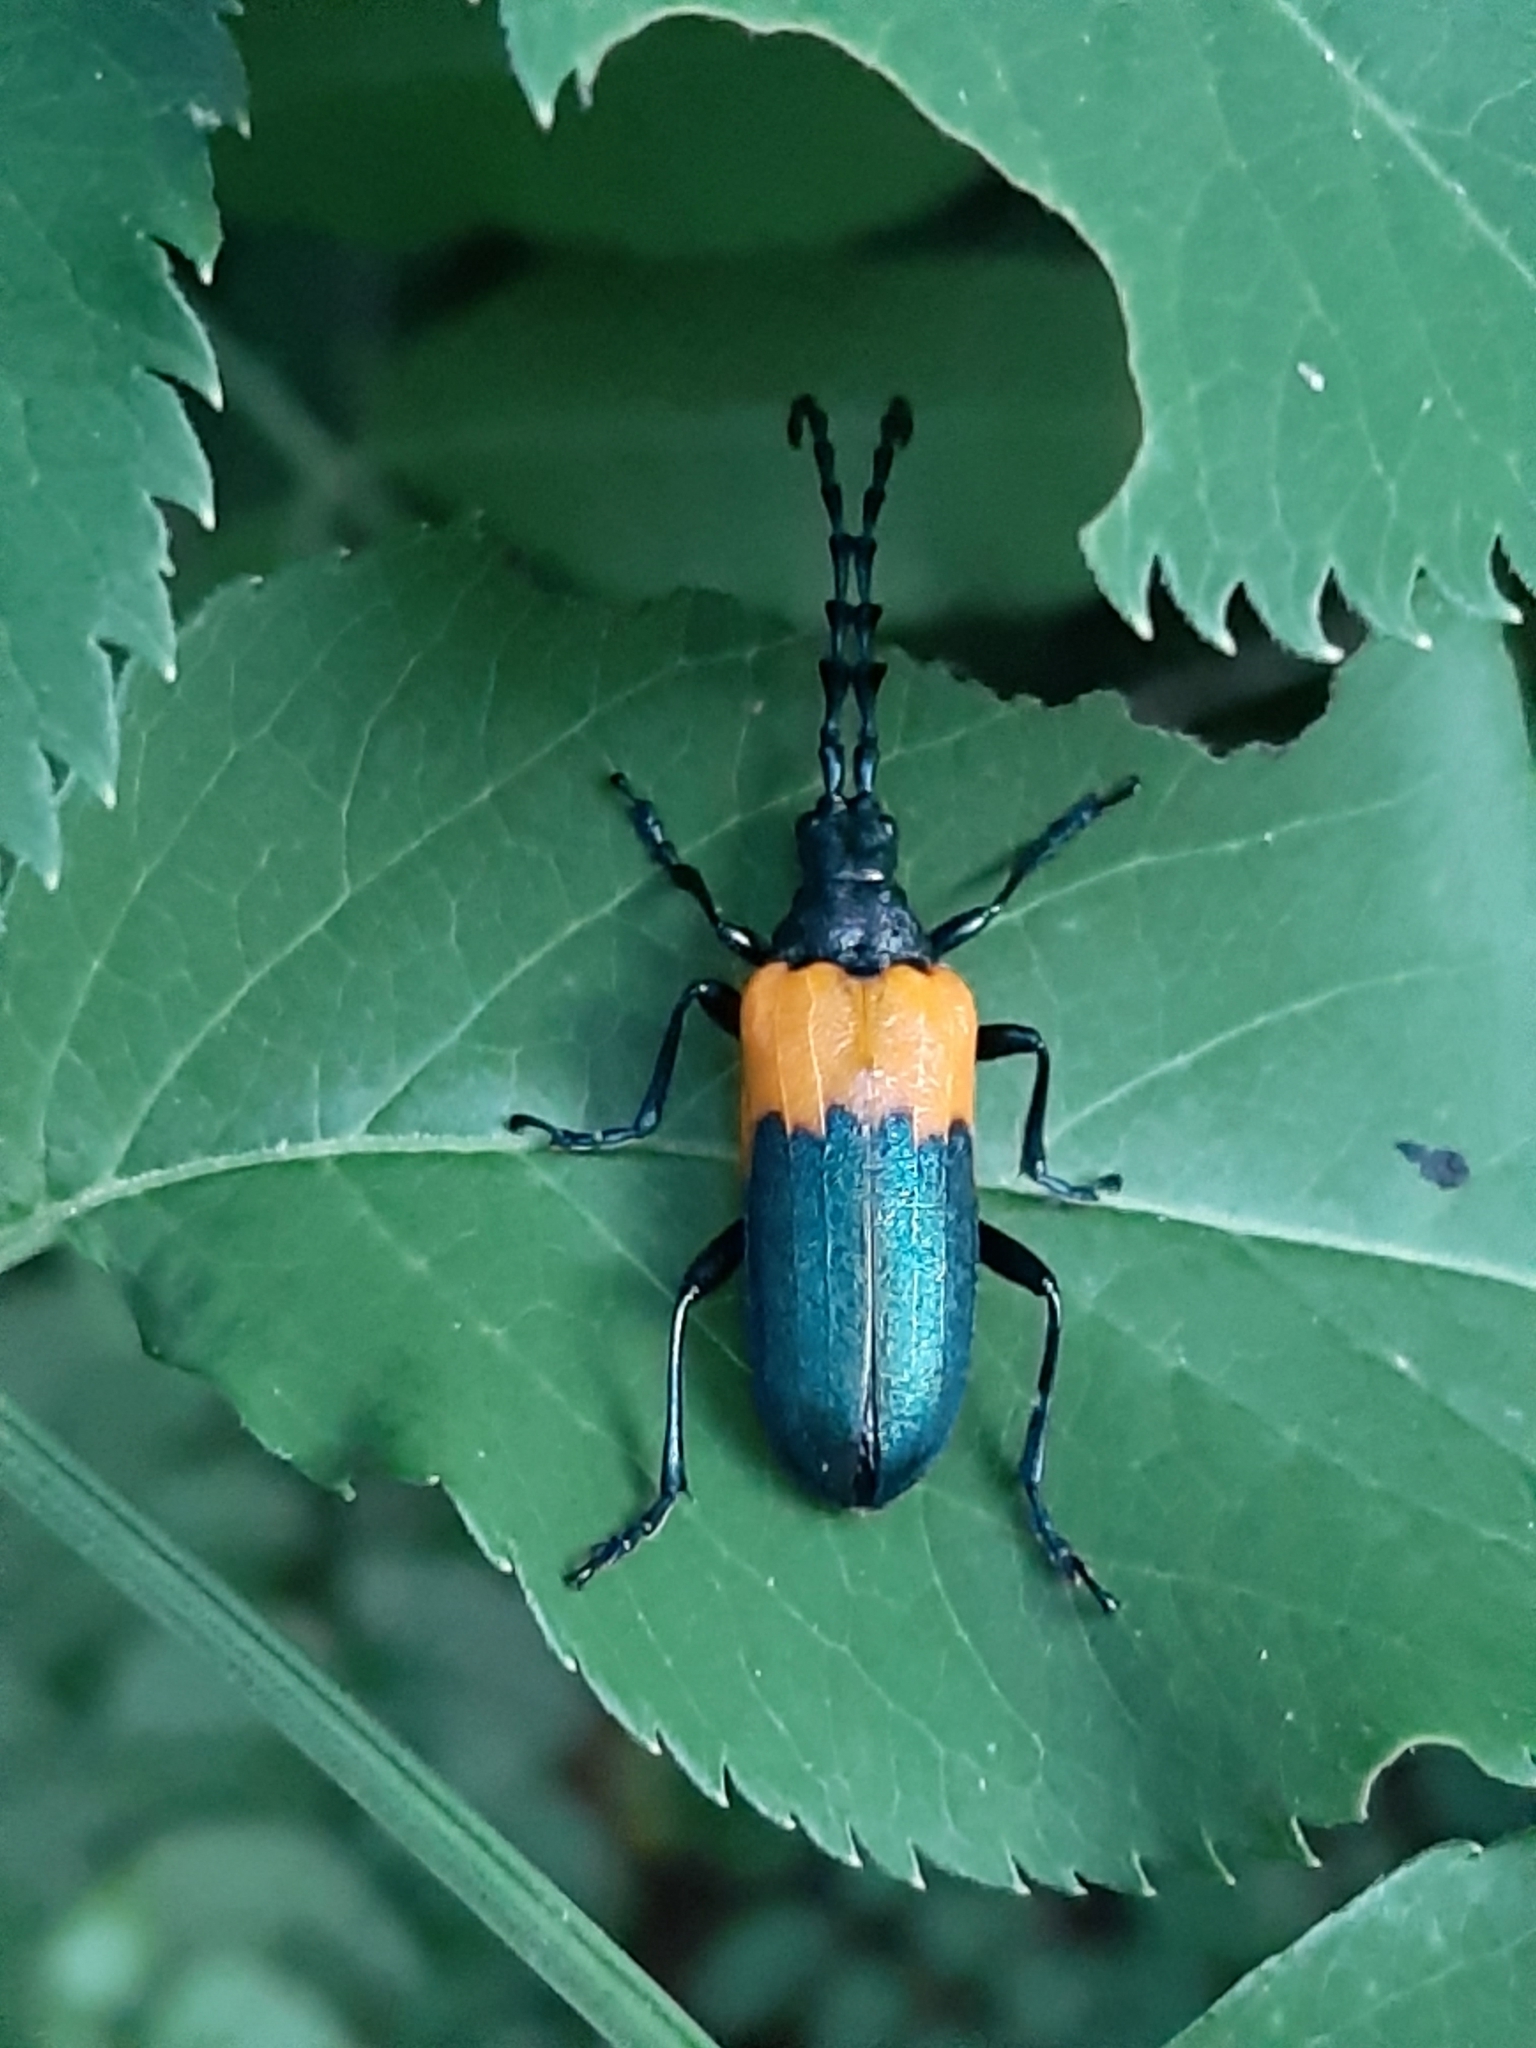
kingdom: Animalia
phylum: Arthropoda
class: Insecta
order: Coleoptera
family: Cerambycidae
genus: Desmocerus
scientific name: Desmocerus palliatus
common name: Eastern elderberry borer
